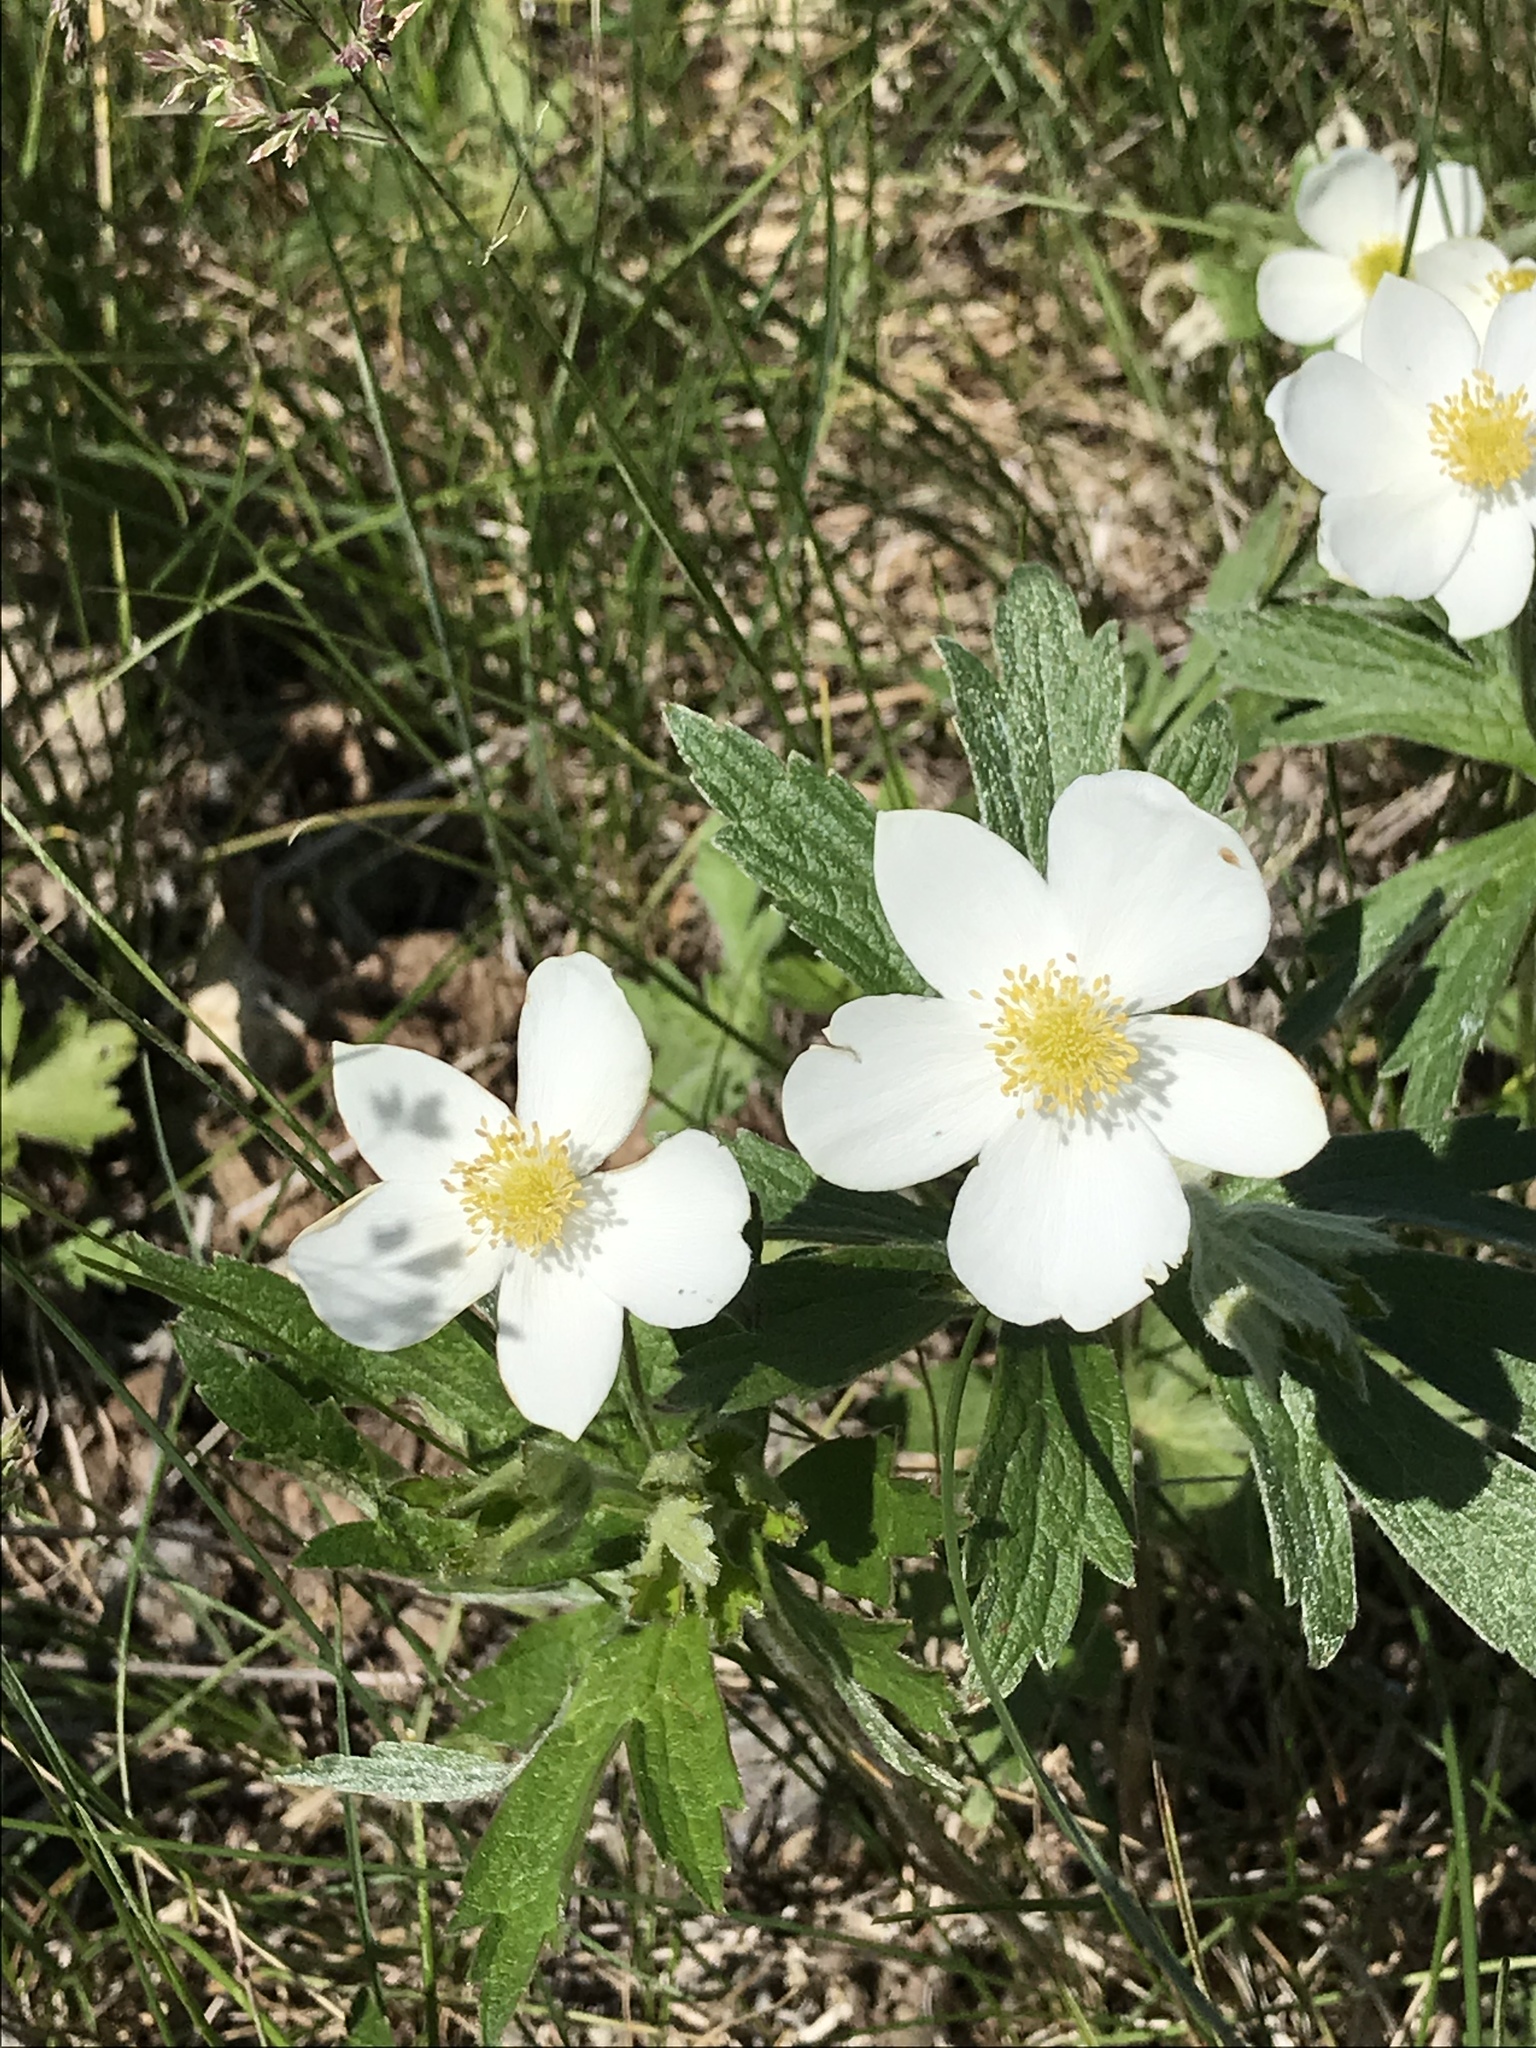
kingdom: Plantae
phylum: Tracheophyta
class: Magnoliopsida
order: Ranunculales
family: Ranunculaceae
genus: Anemonastrum
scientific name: Anemonastrum canadense
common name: Canada anemone
